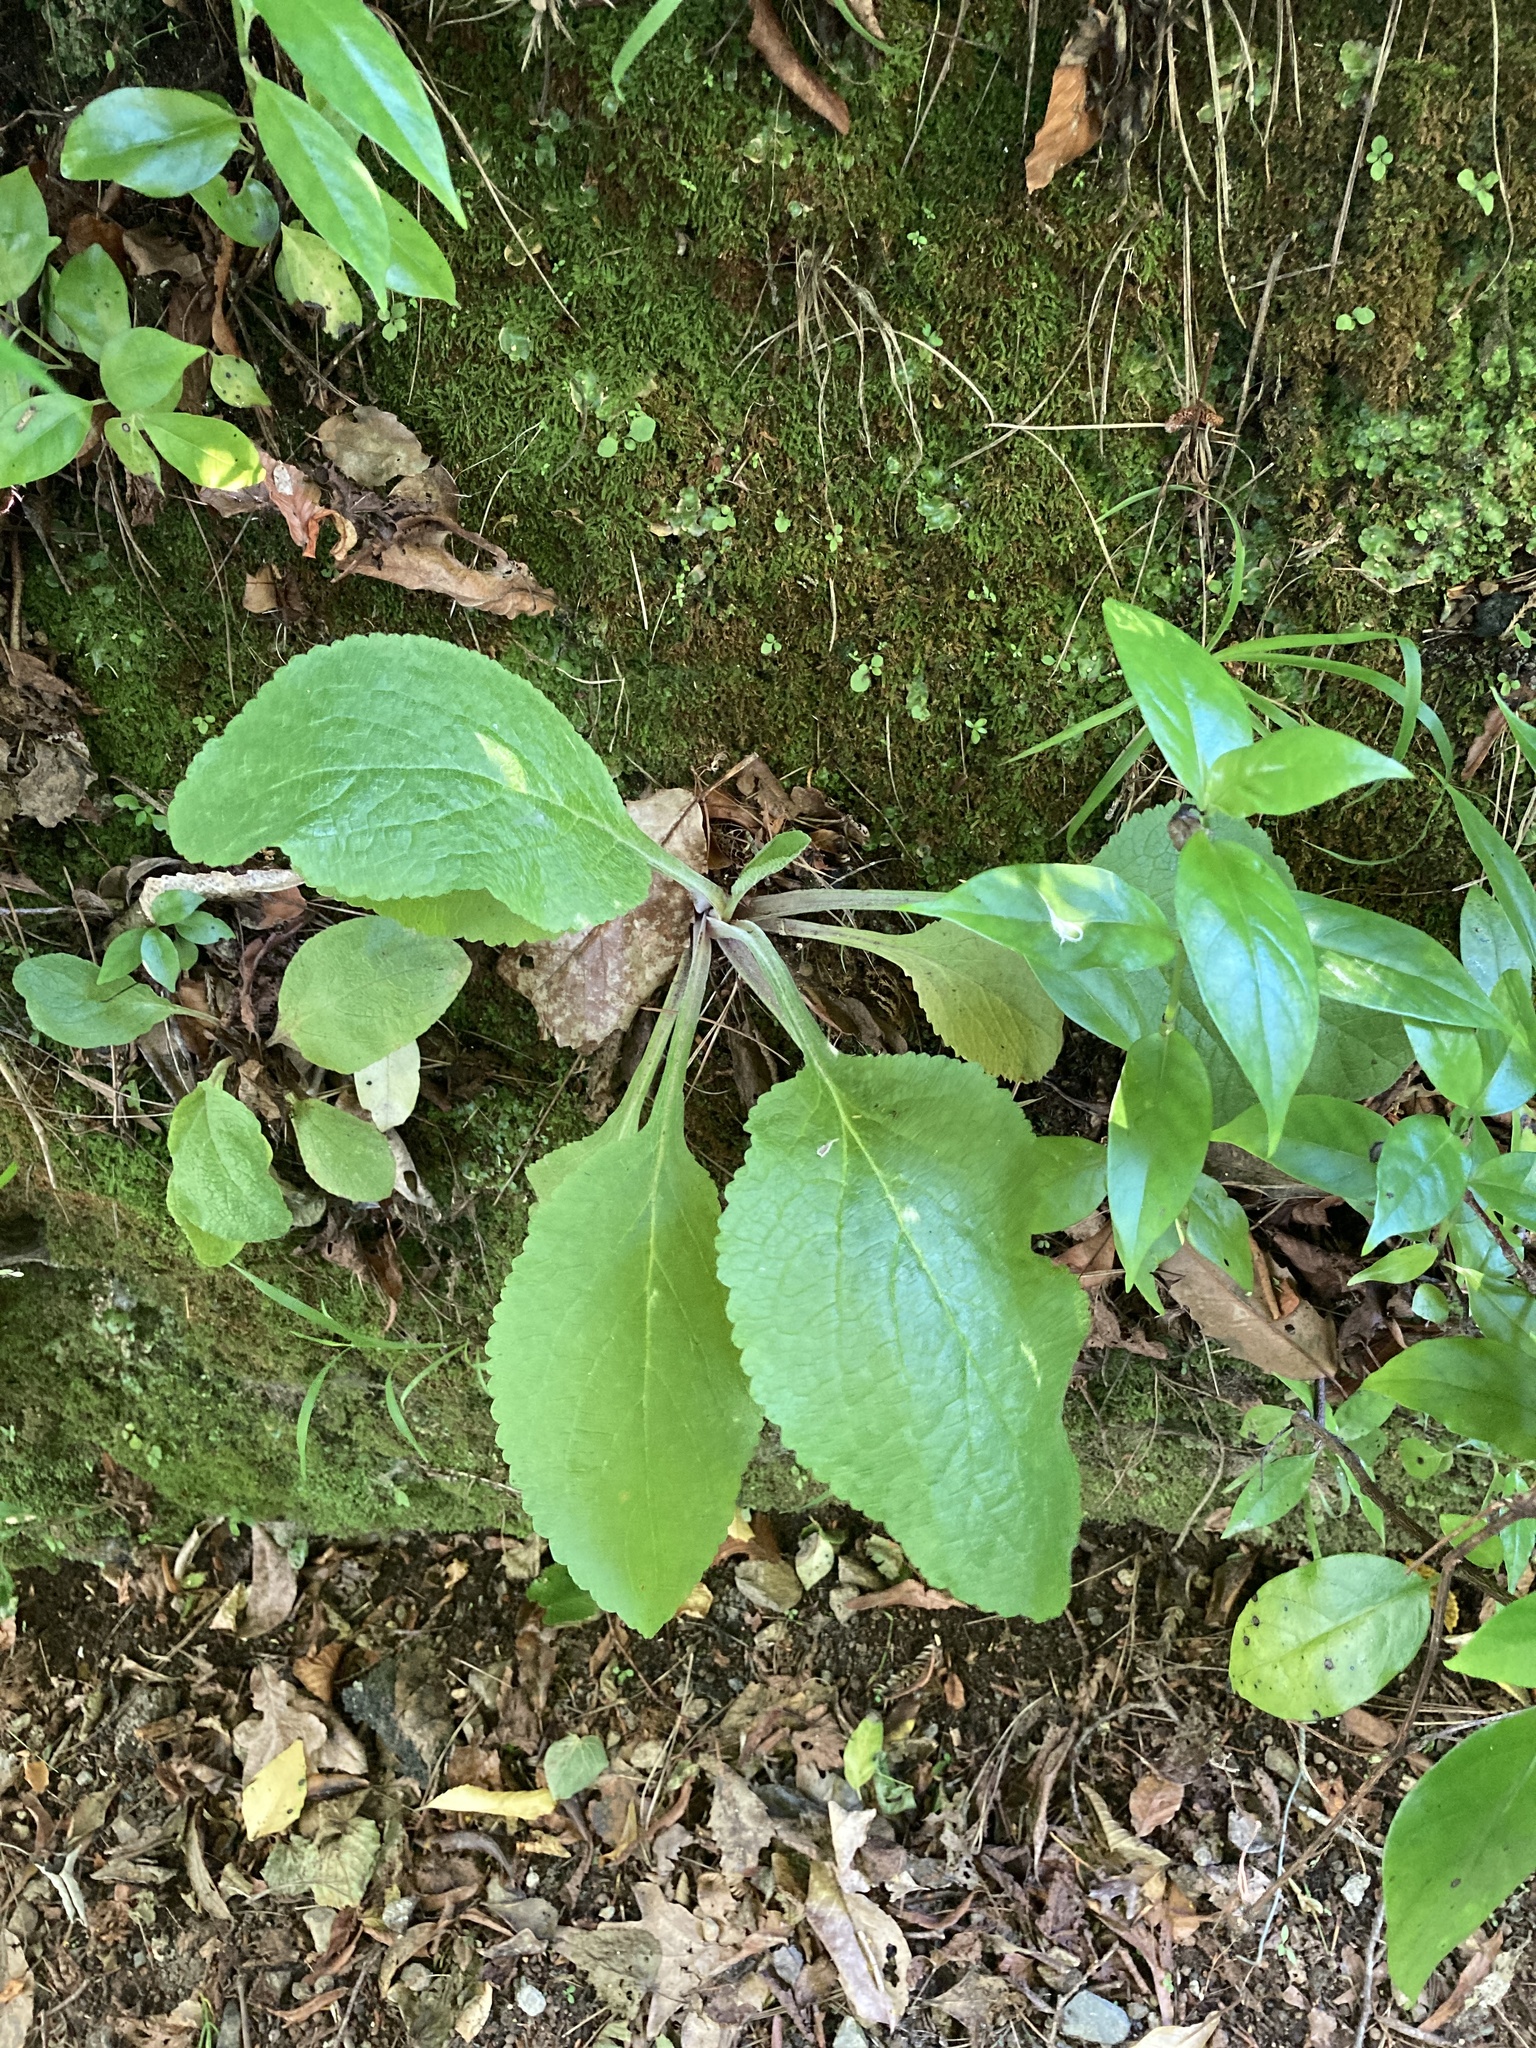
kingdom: Plantae
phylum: Tracheophyta
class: Magnoliopsida
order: Lamiales
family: Plantaginaceae
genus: Digitalis
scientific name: Digitalis purpurea
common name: Foxglove
